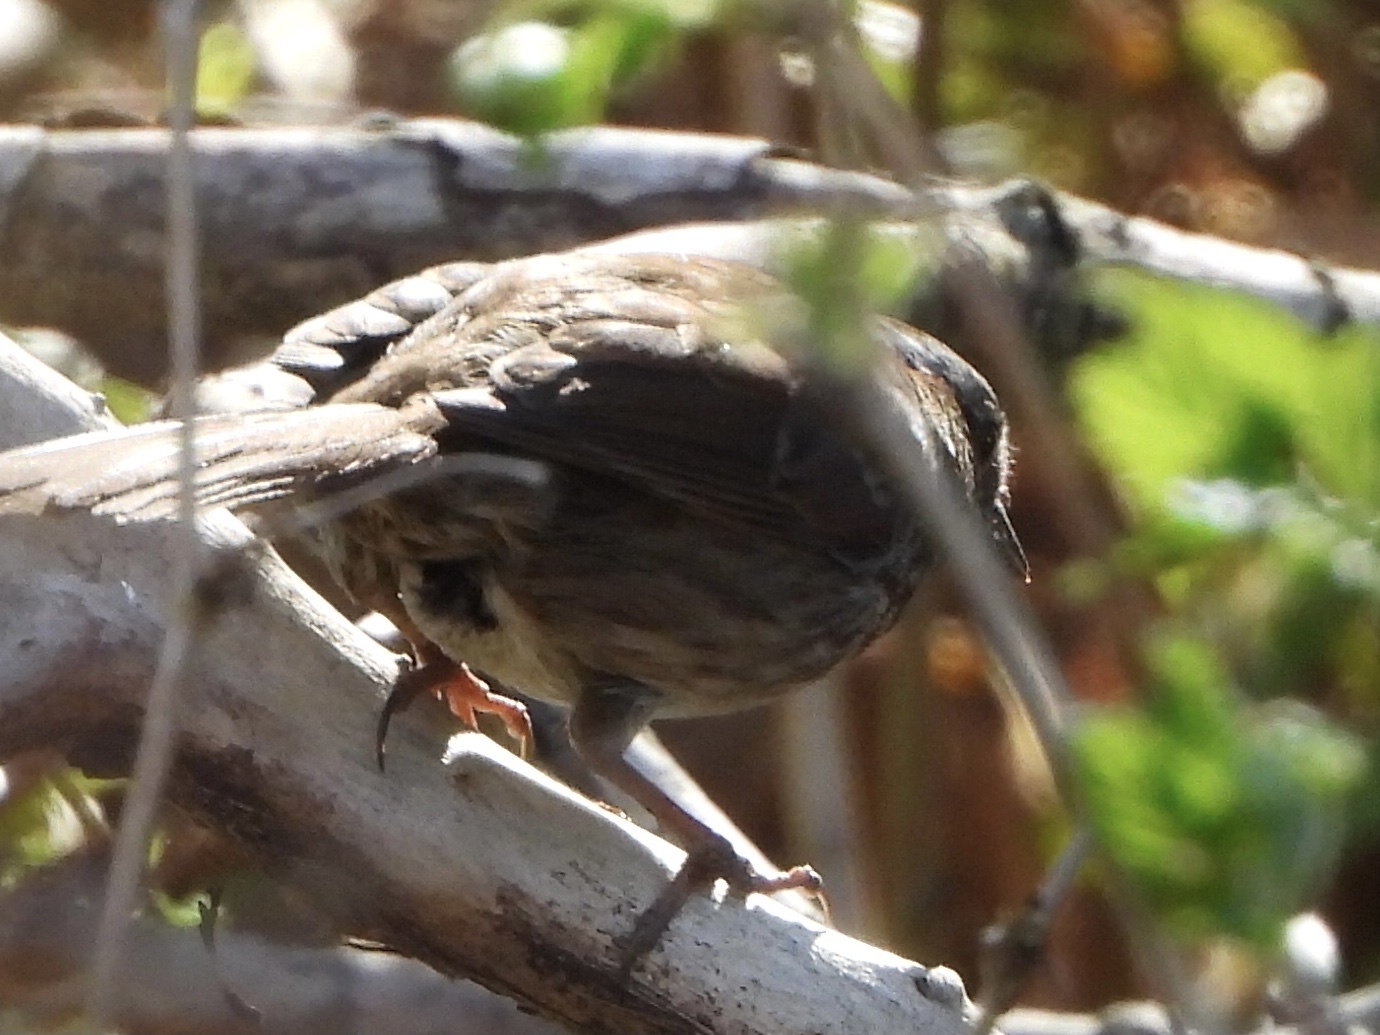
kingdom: Animalia
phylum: Chordata
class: Aves
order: Passeriformes
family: Passerellidae
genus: Melospiza
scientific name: Melospiza melodia
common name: Song sparrow
